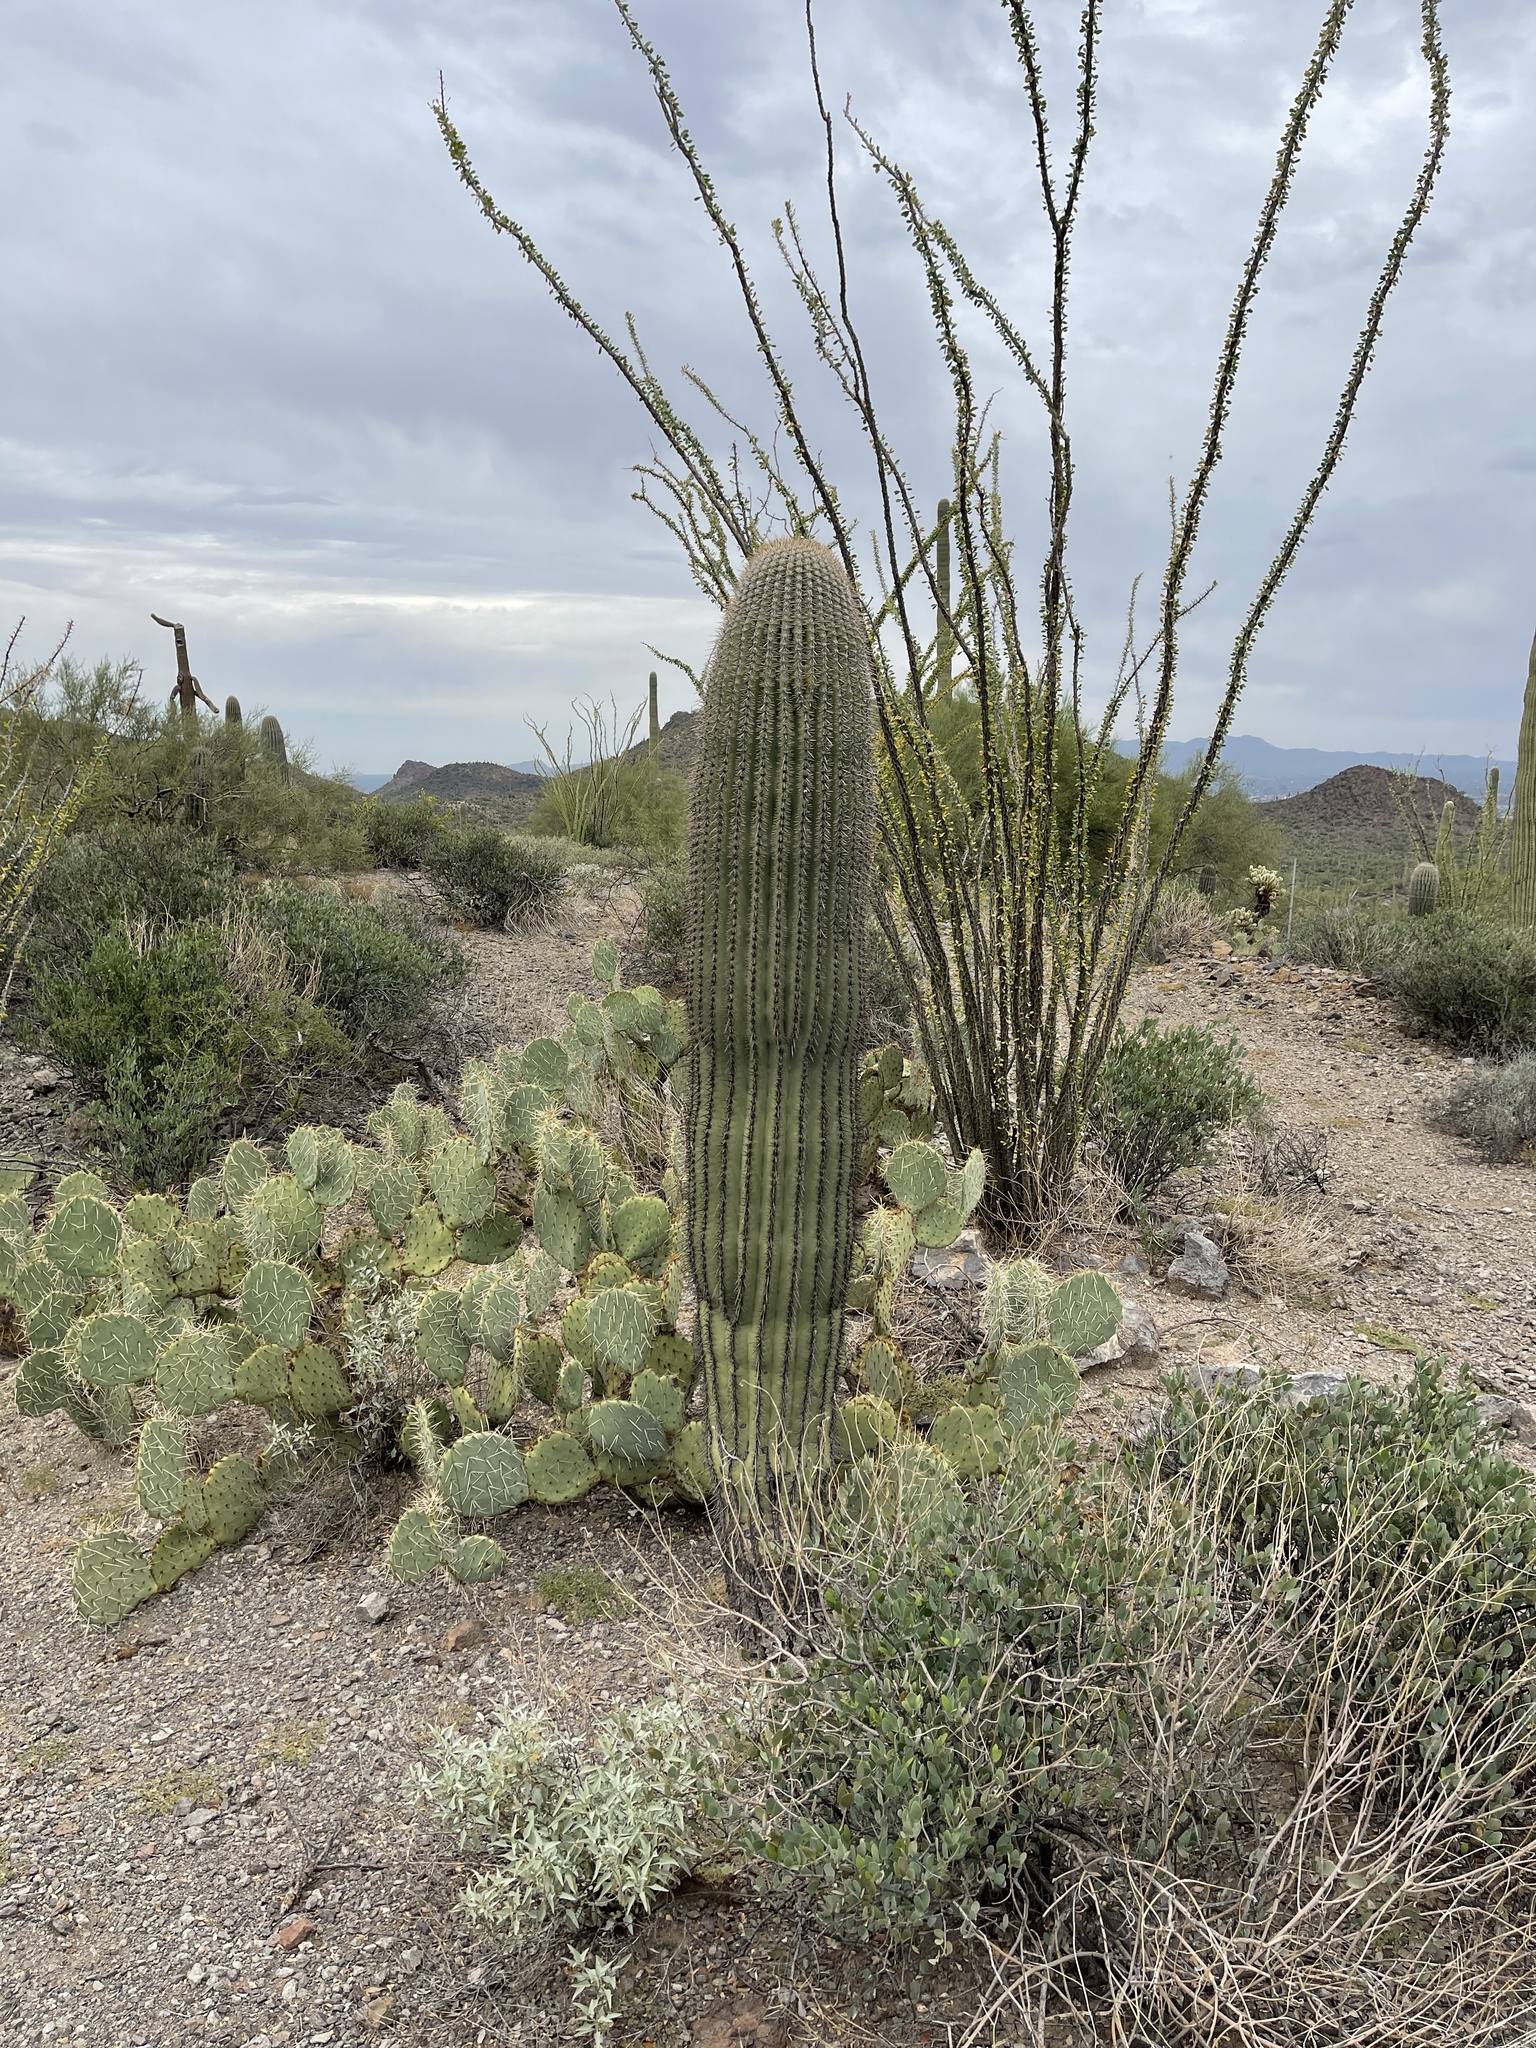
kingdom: Plantae
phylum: Tracheophyta
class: Magnoliopsida
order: Caryophyllales
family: Cactaceae
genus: Carnegiea
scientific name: Carnegiea gigantea
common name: Saguaro
